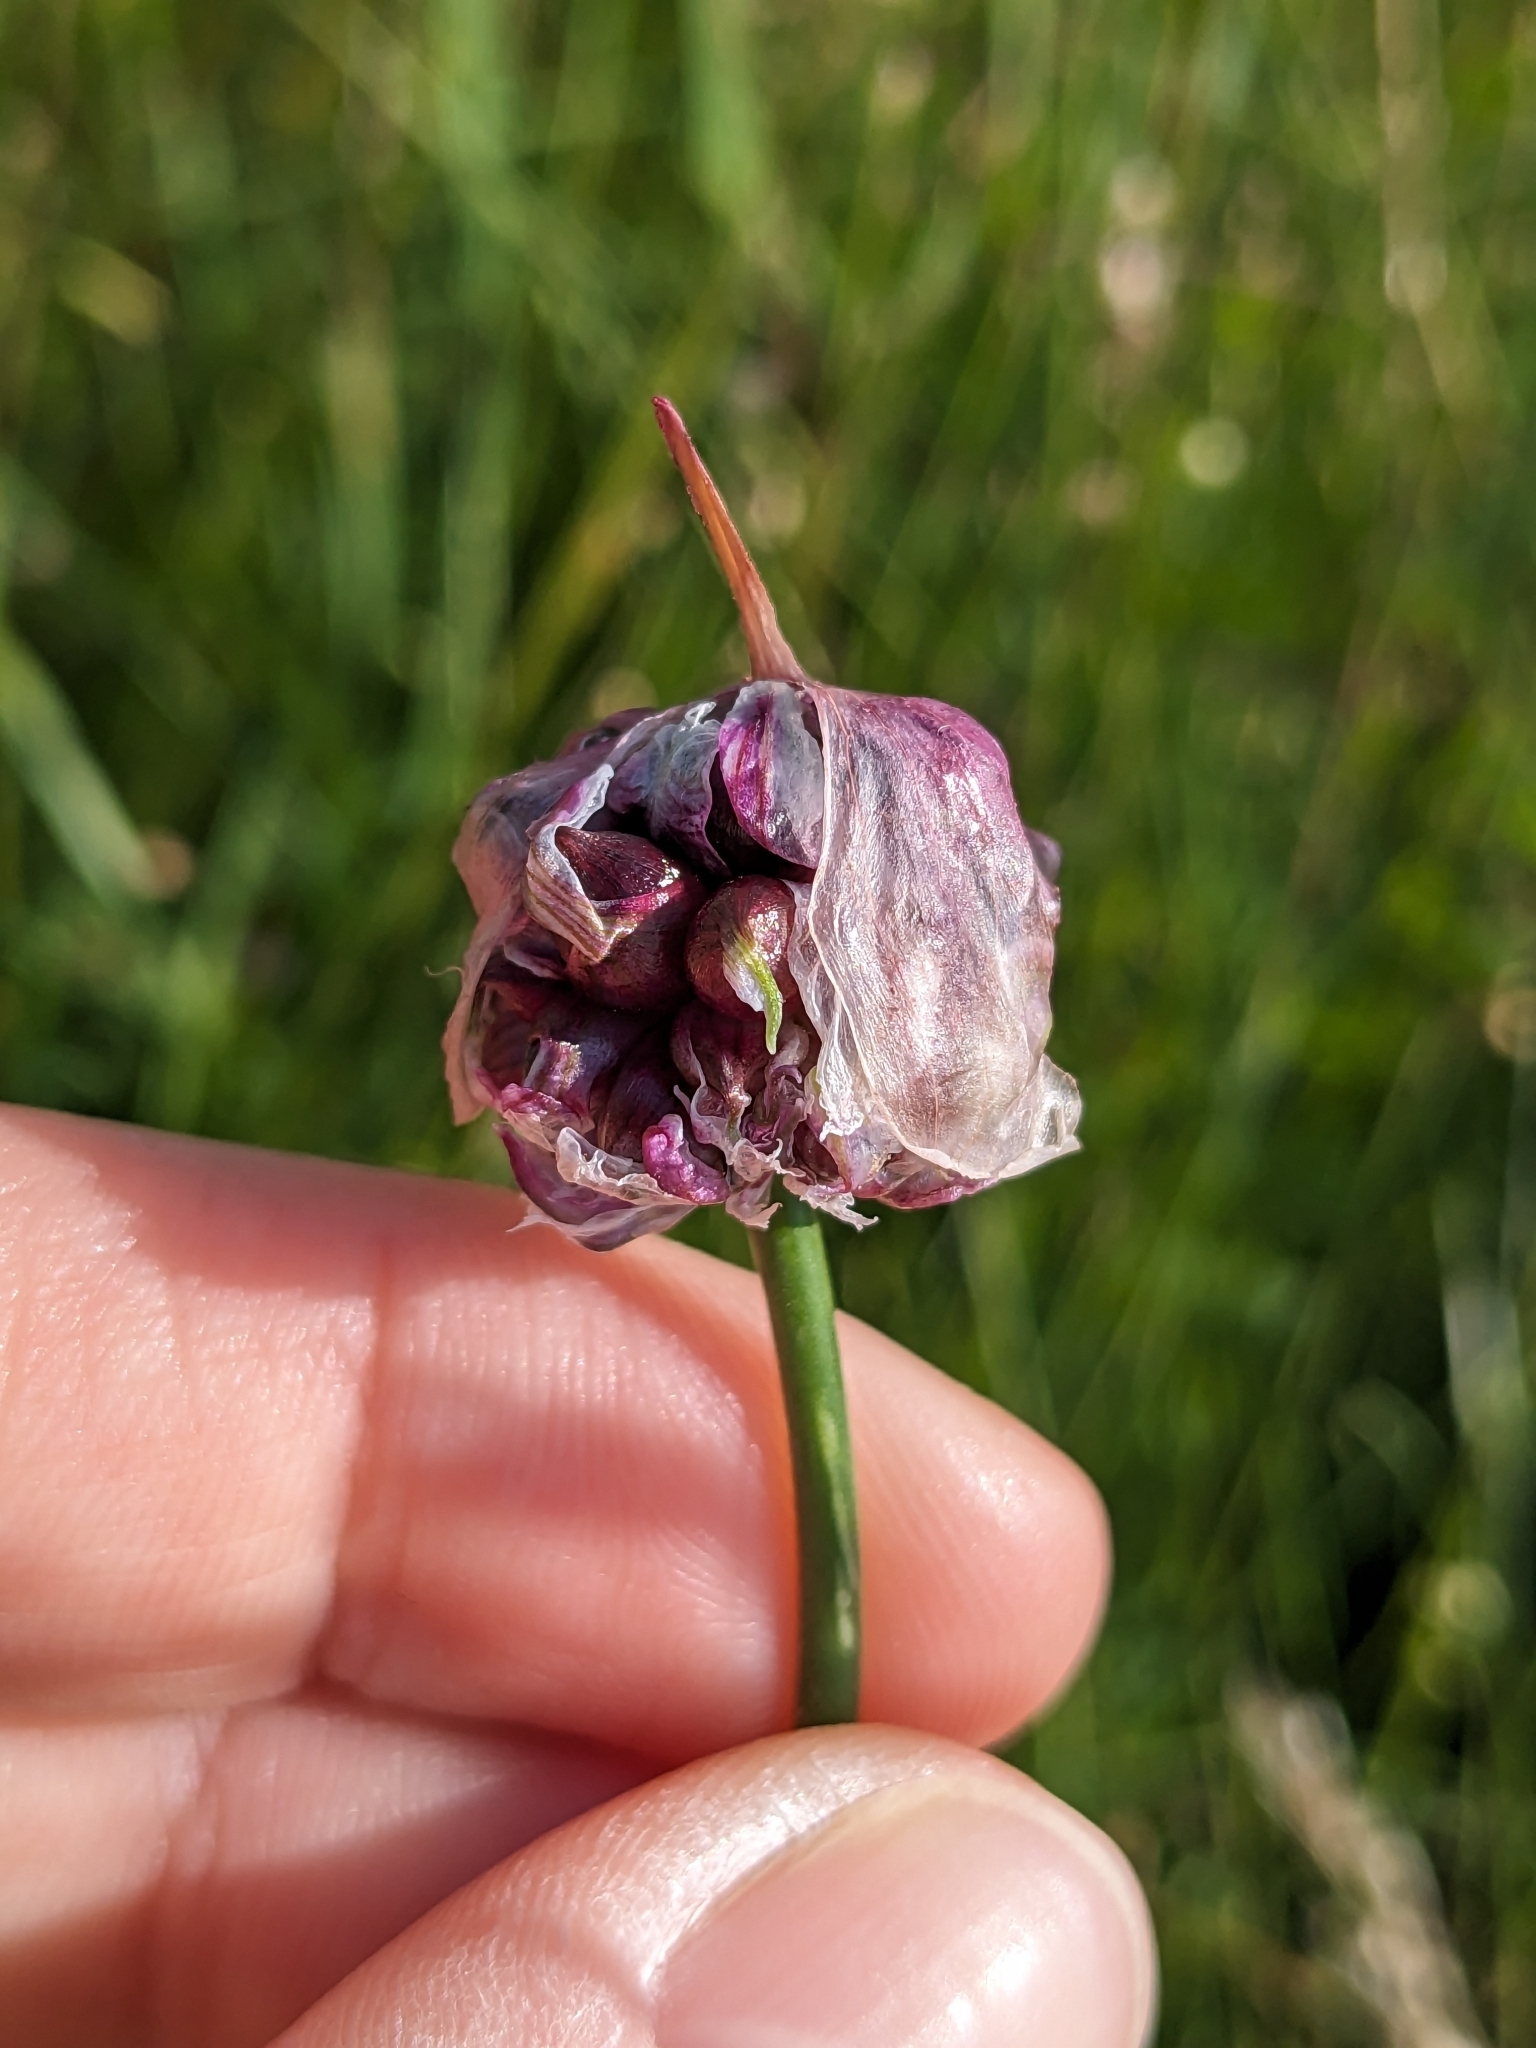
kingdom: Plantae
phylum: Tracheophyta
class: Liliopsida
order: Asparagales
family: Amaryllidaceae
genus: Allium
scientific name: Allium scorodoprasum
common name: Sand leek
